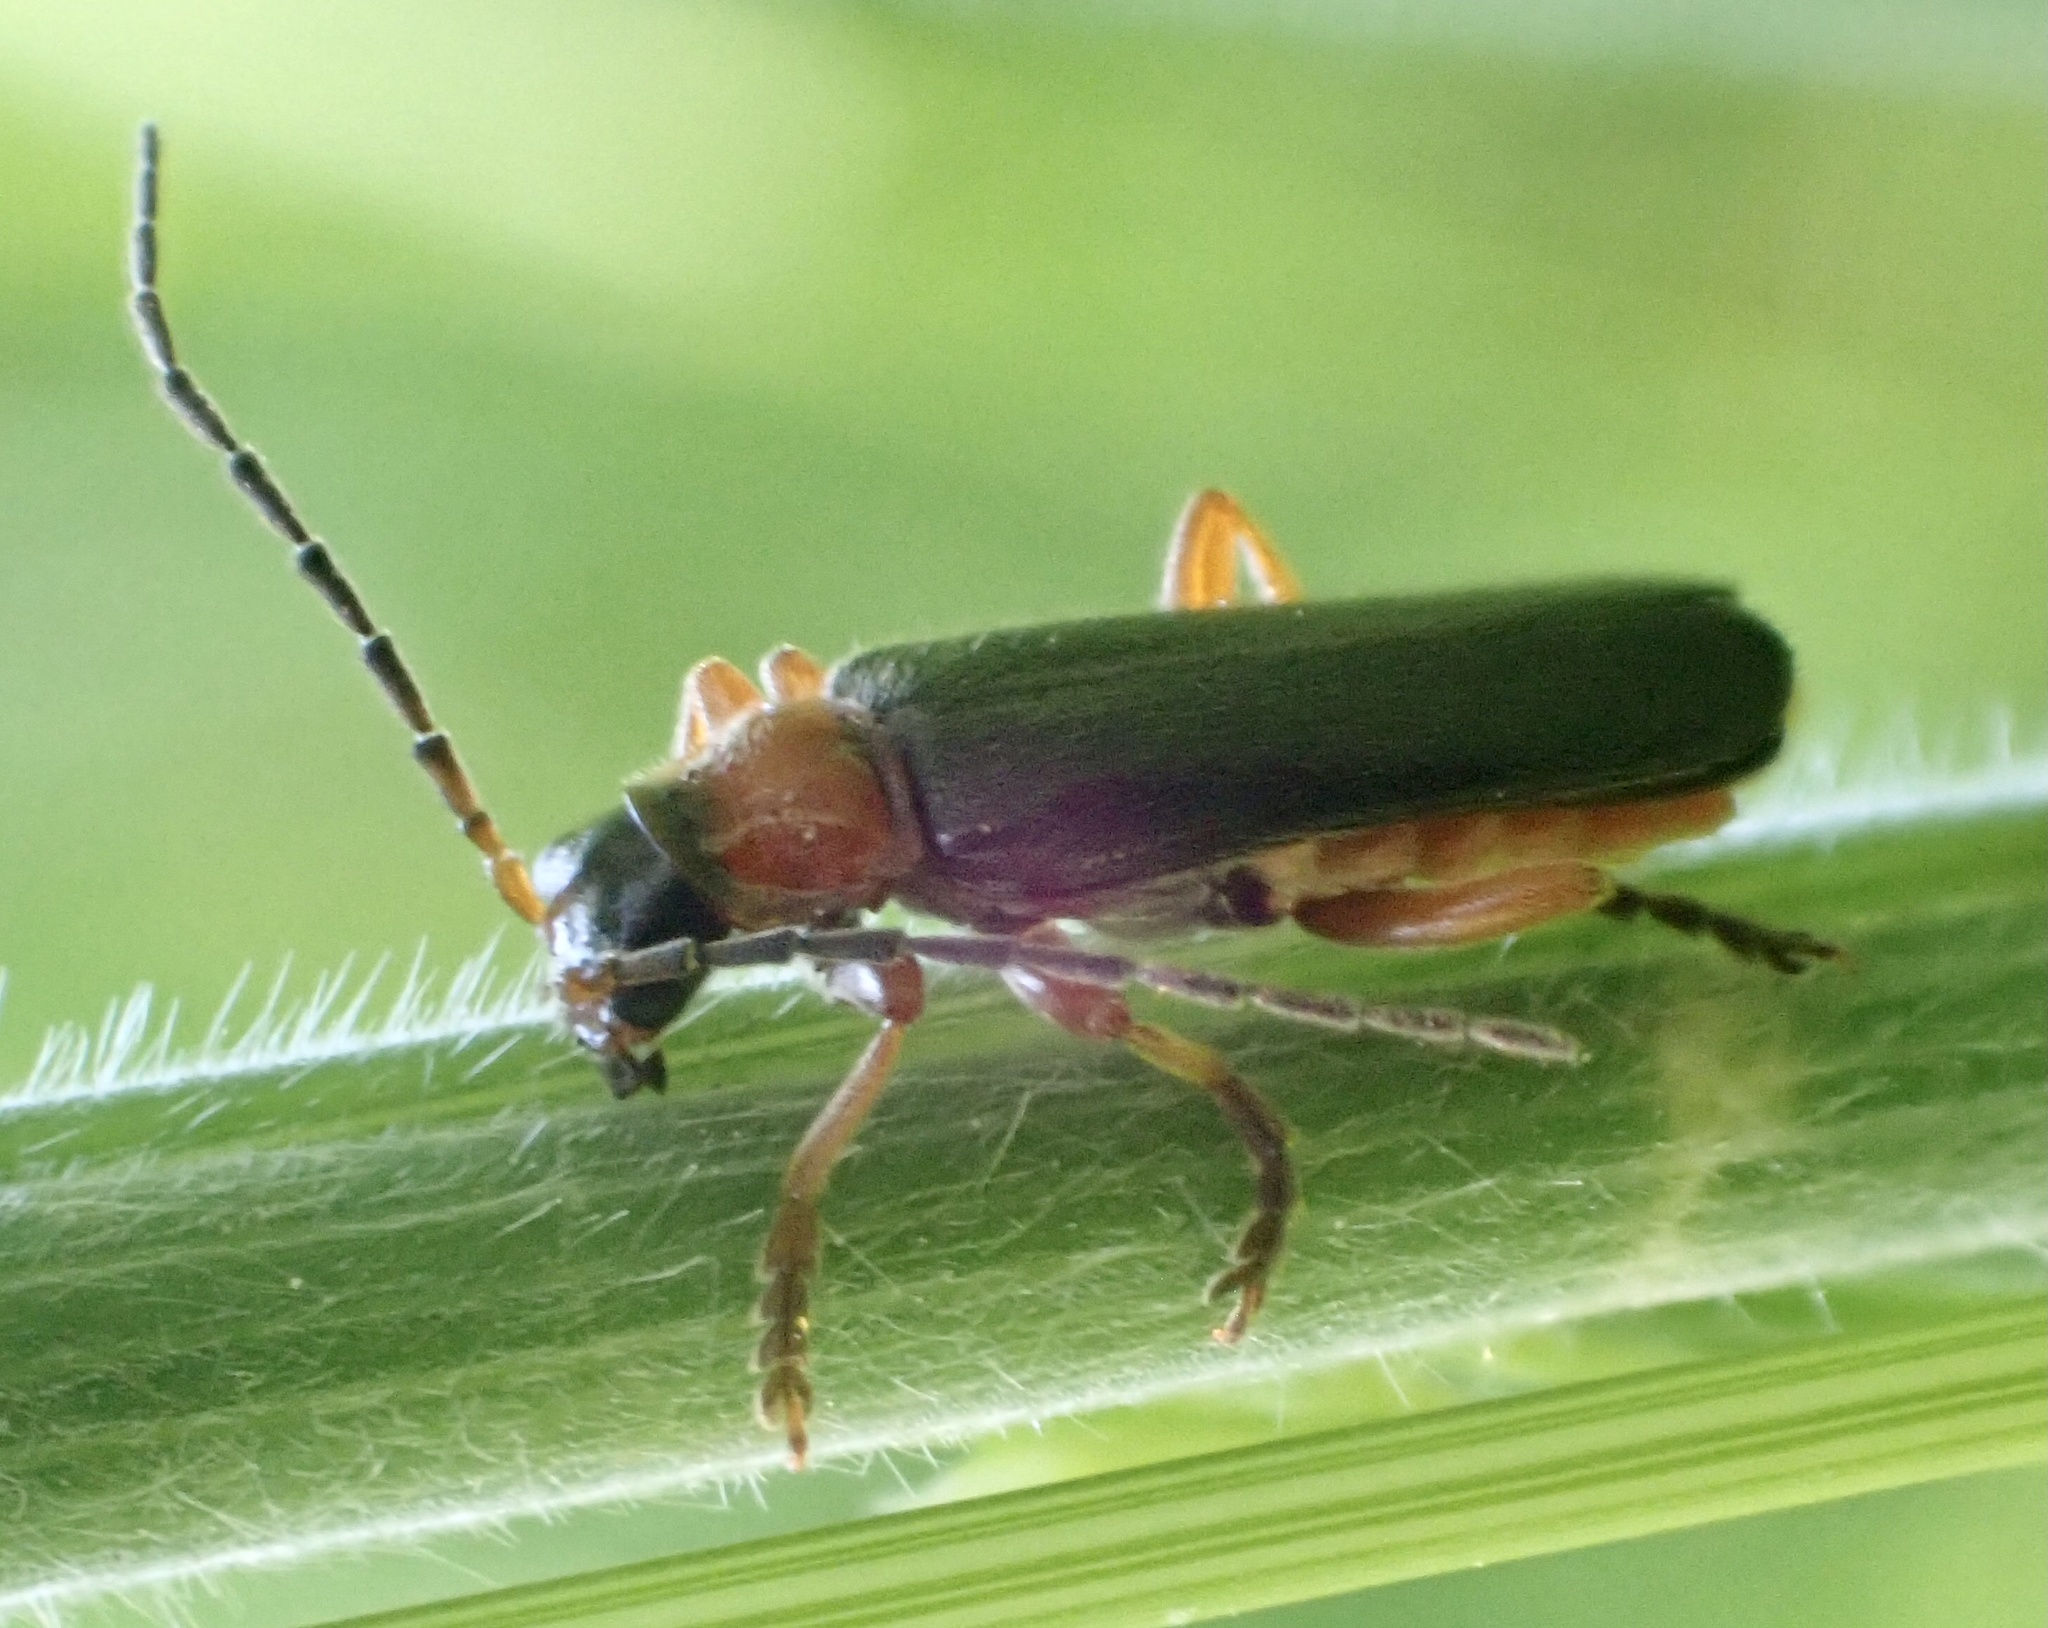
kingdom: Animalia
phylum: Arthropoda
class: Insecta
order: Coleoptera
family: Cantharidae
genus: Cantharis
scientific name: Cantharis flavilabris
